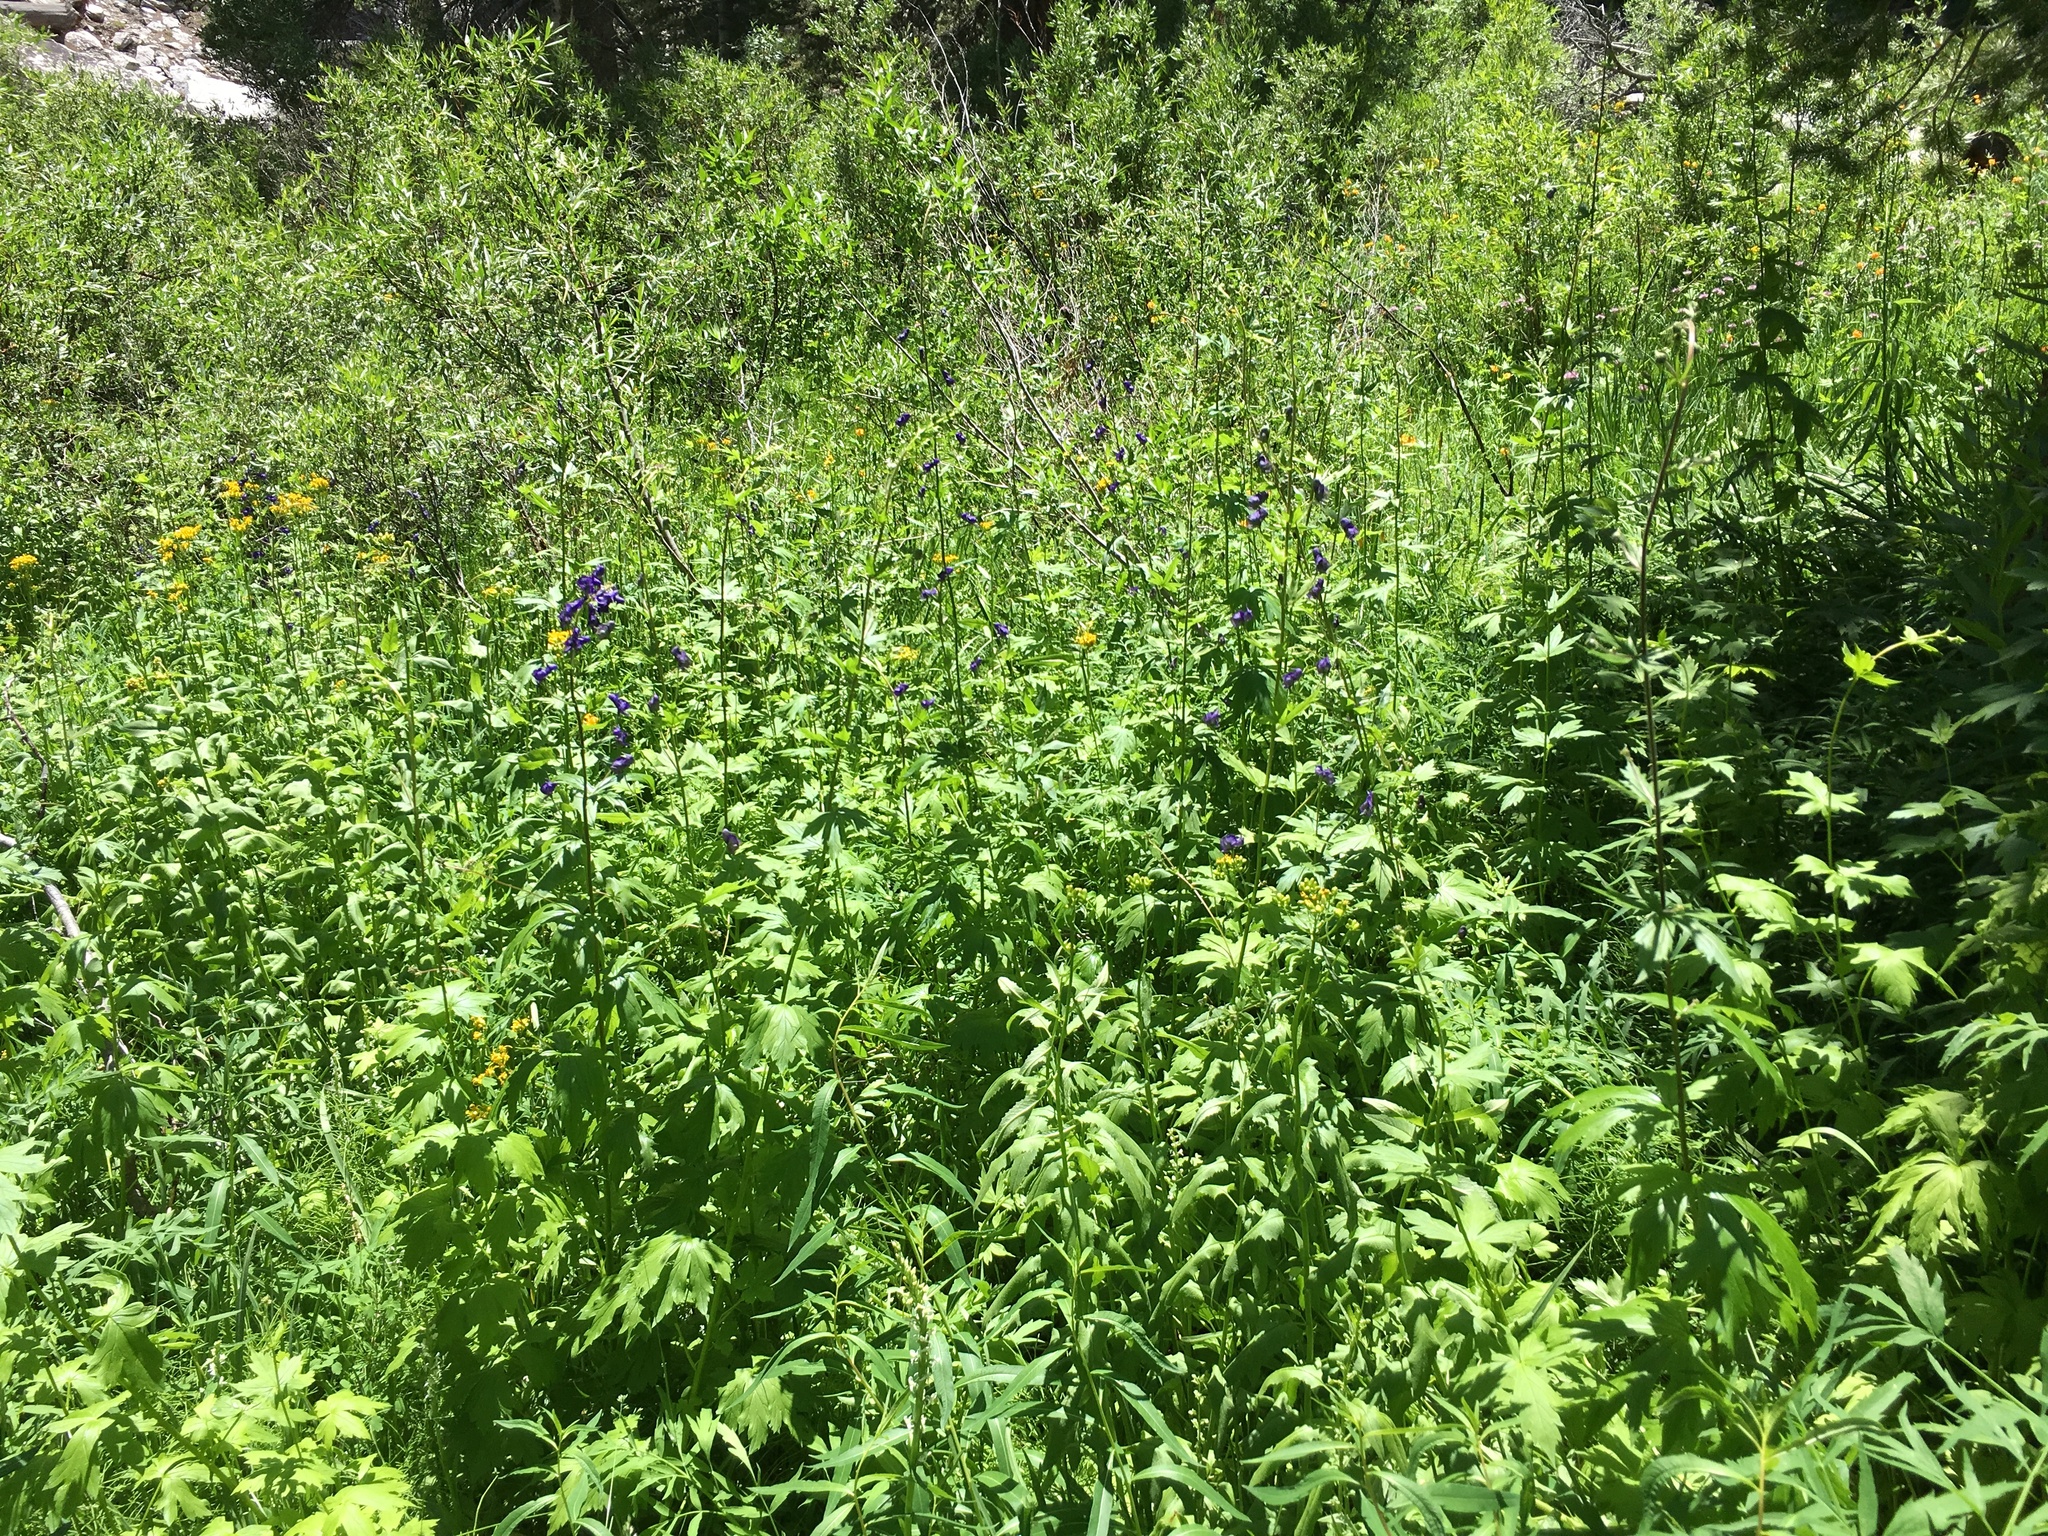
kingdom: Plantae
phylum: Tracheophyta
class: Magnoliopsida
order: Ranunculales
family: Ranunculaceae
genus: Aconitum
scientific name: Aconitum columbianum
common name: Columbia aconite
